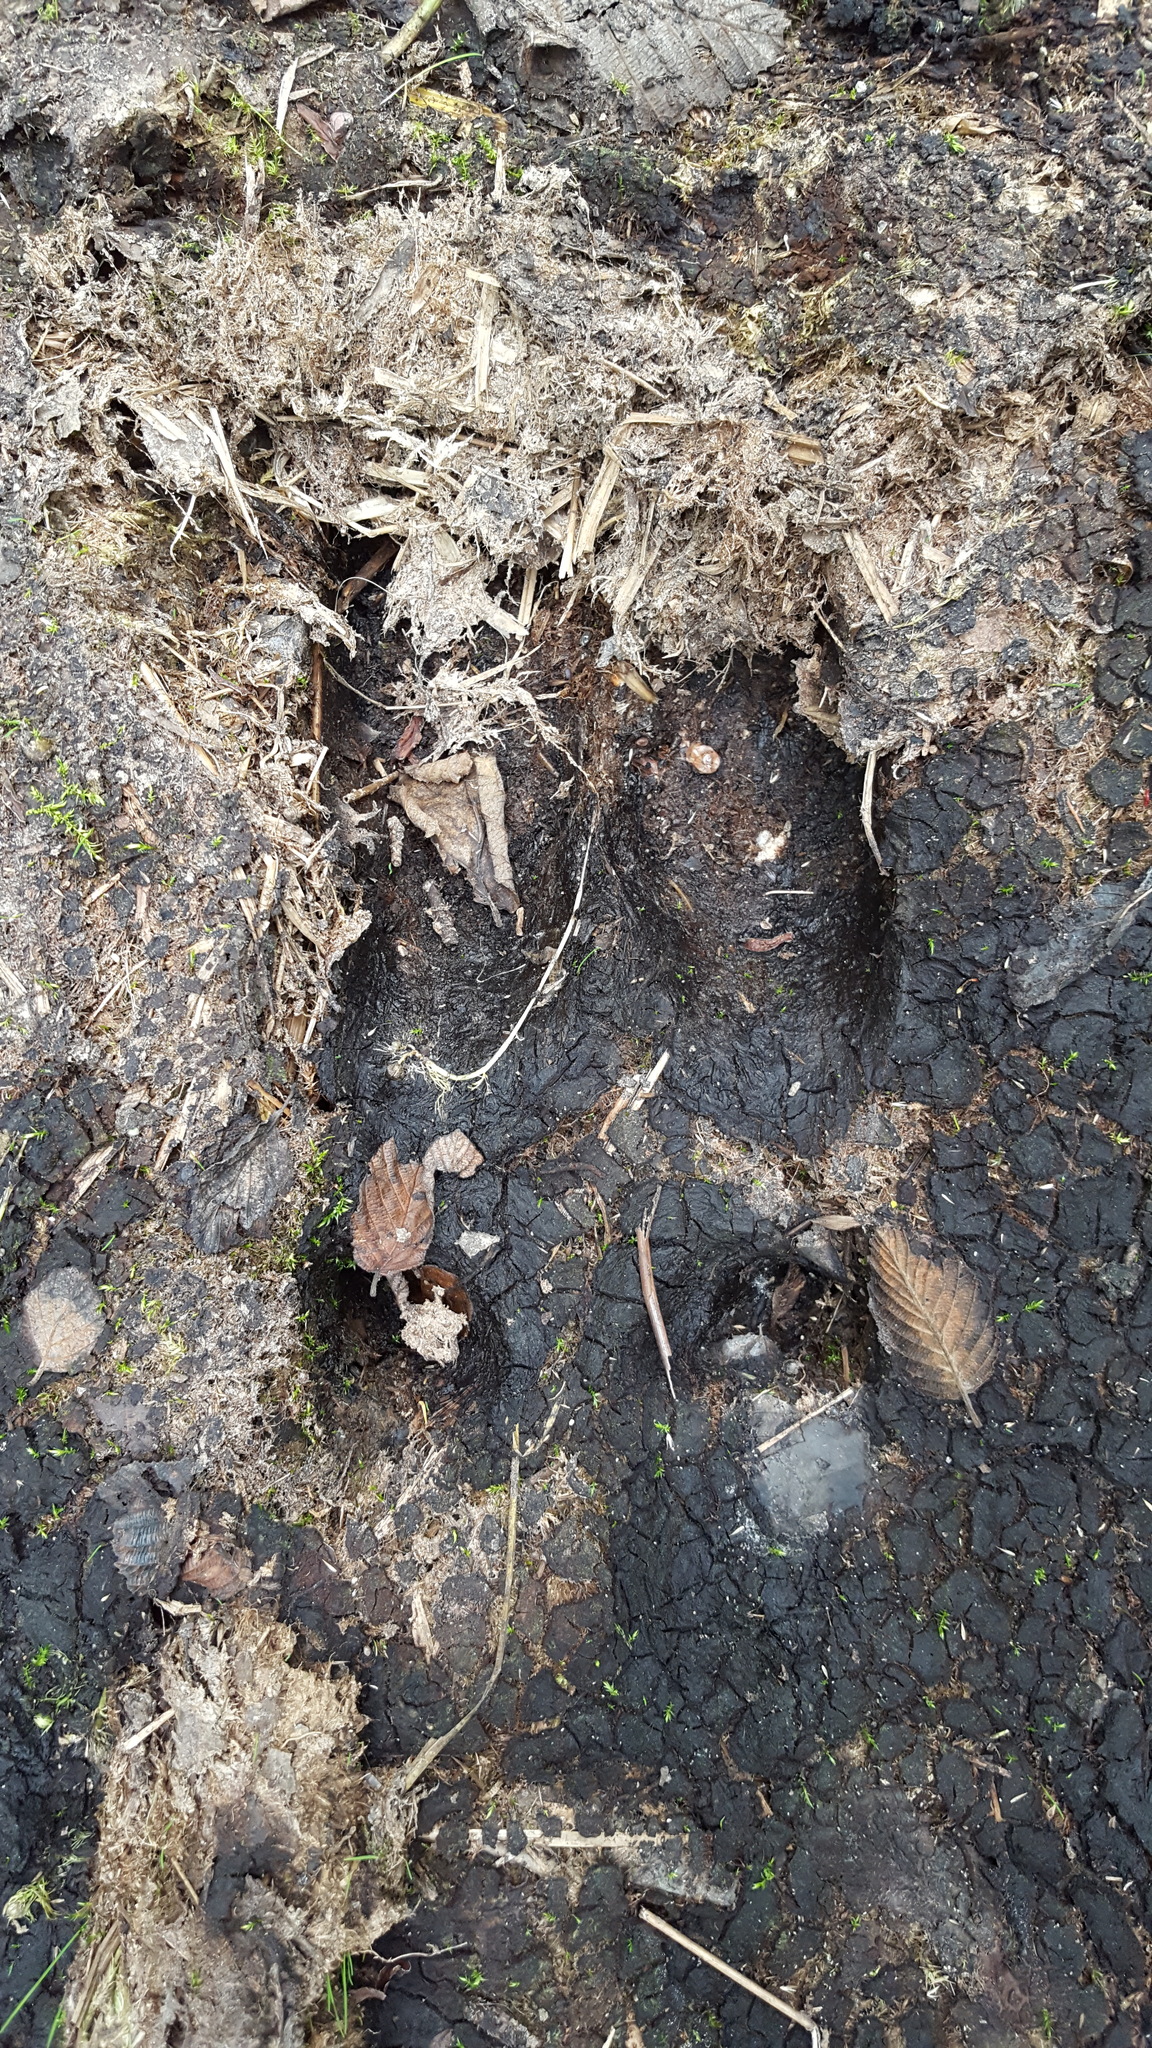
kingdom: Animalia
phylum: Chordata
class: Mammalia
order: Artiodactyla
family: Cervidae
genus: Alces
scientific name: Alces alces
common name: Moose
